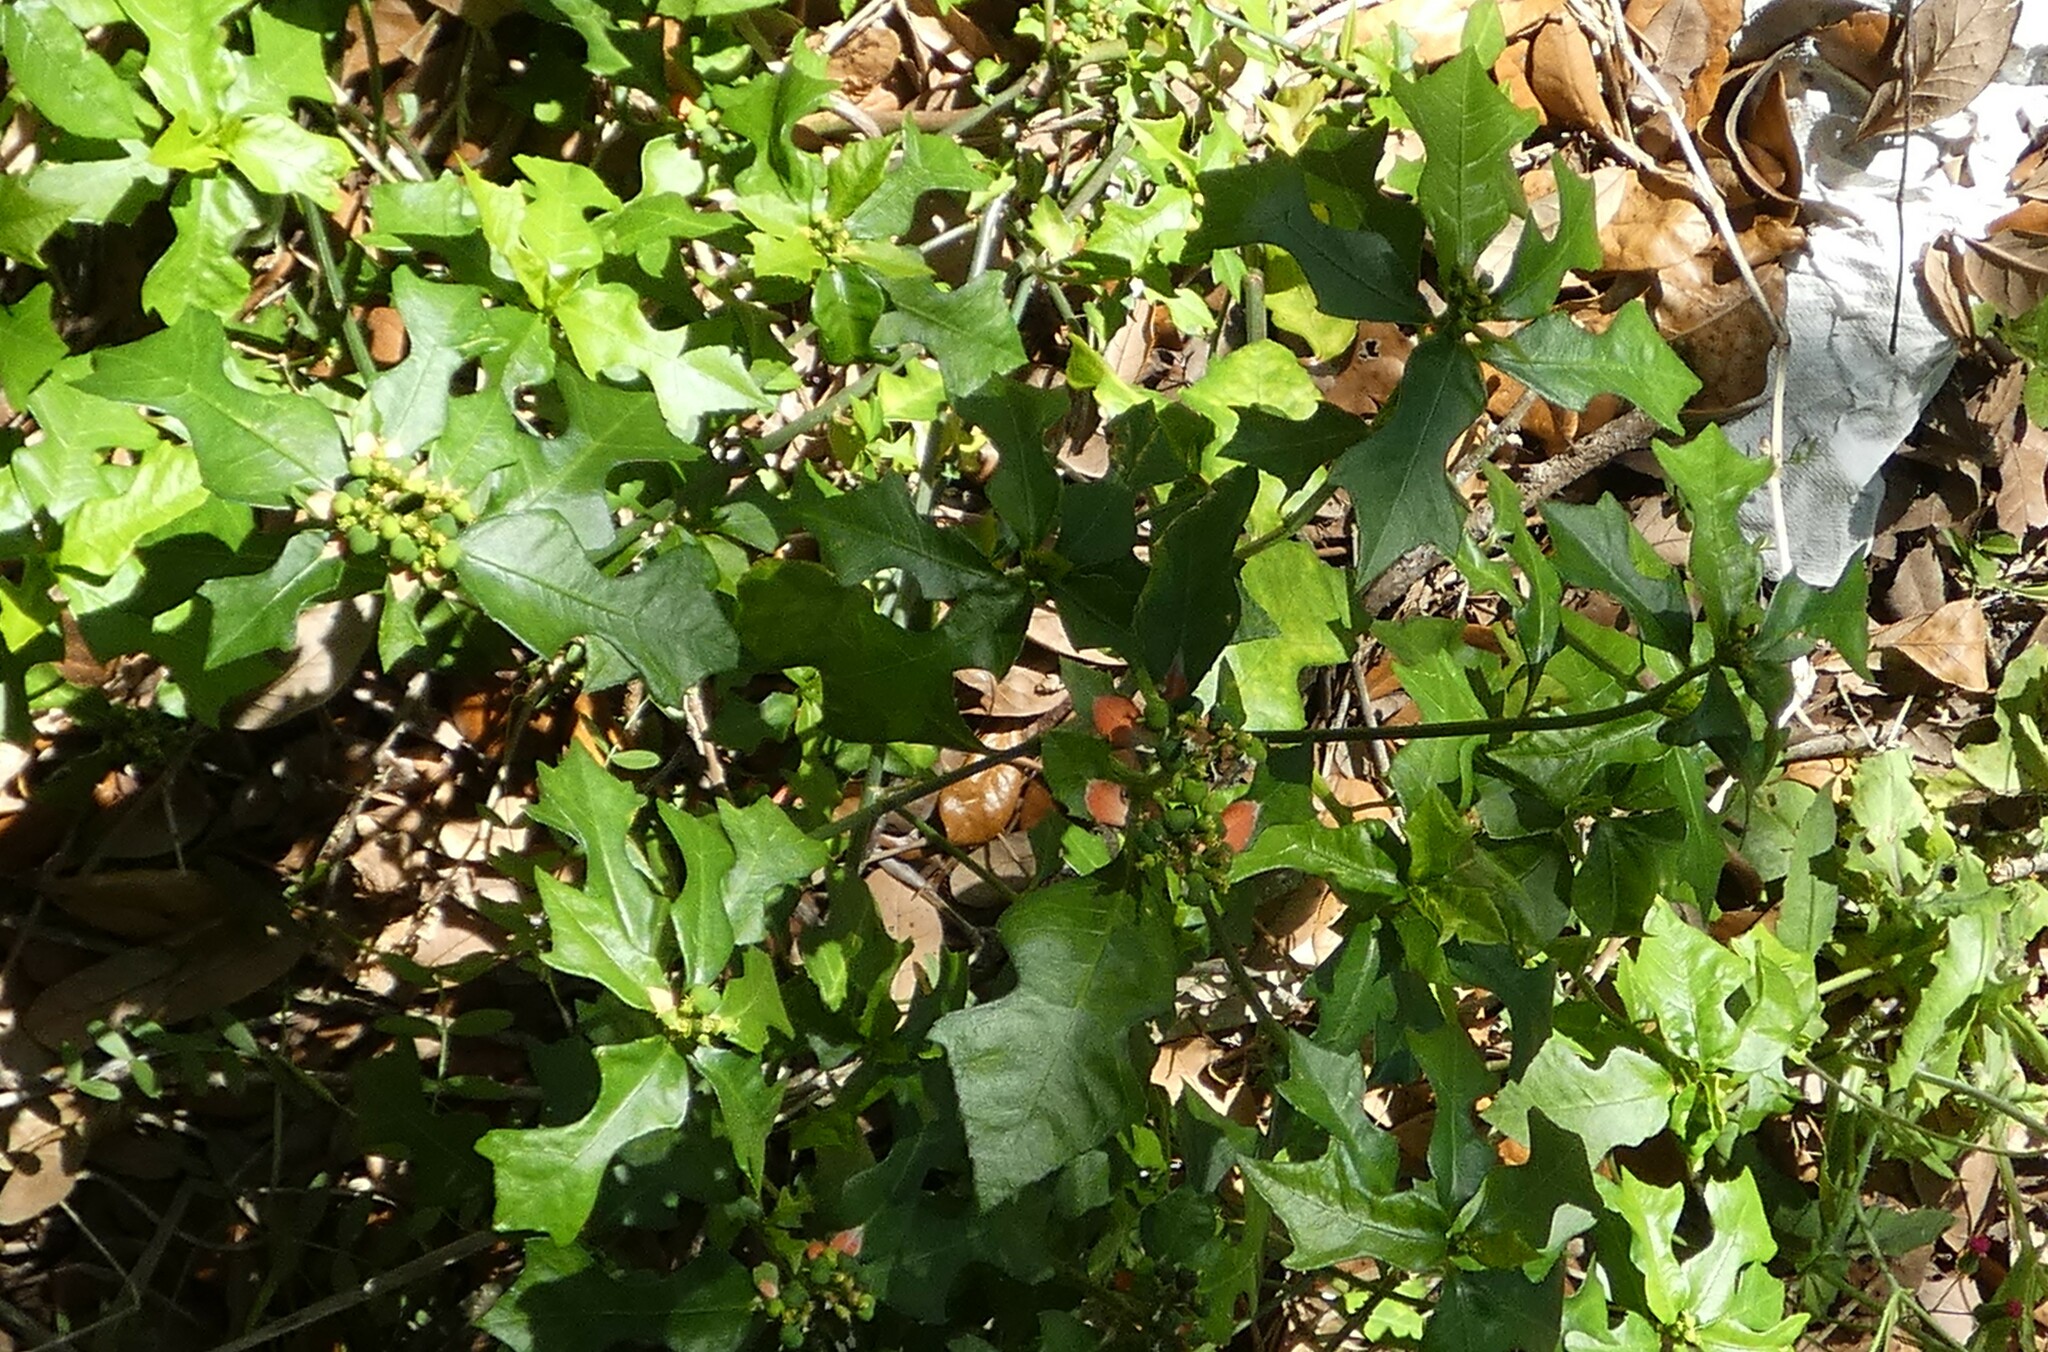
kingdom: Plantae
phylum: Tracheophyta
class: Magnoliopsida
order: Malpighiales
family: Euphorbiaceae
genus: Euphorbia
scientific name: Euphorbia heterophylla
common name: Mexican fireplant
